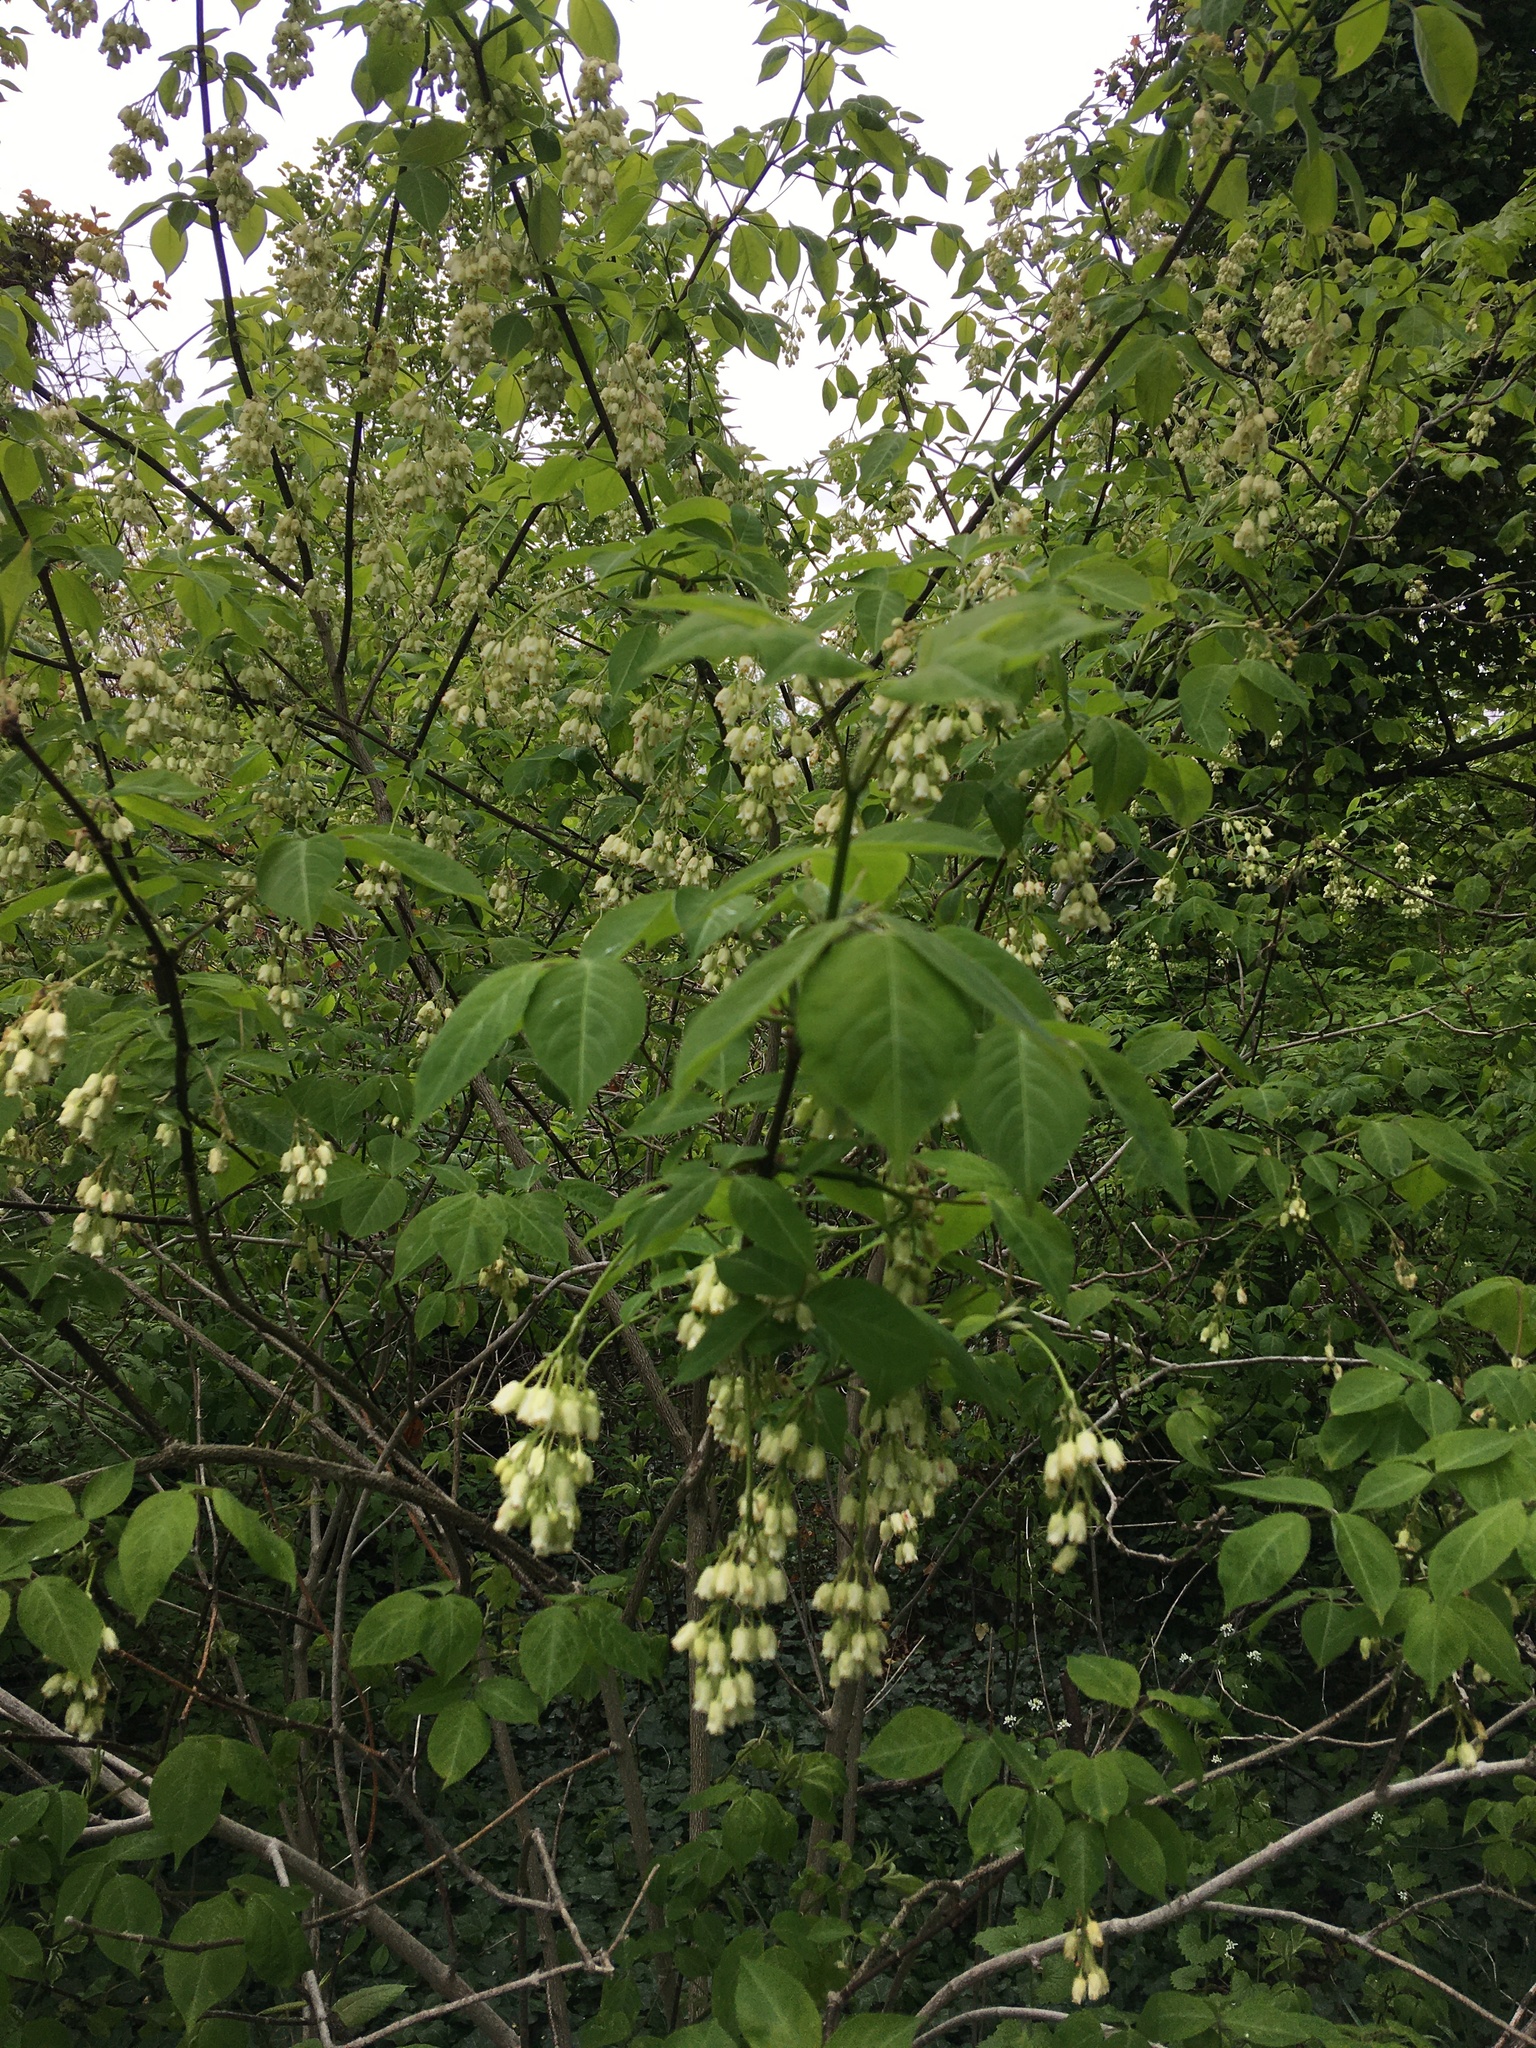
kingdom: Plantae
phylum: Tracheophyta
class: Magnoliopsida
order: Crossosomatales
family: Staphyleaceae
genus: Staphylea
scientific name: Staphylea trifolia
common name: American bladdernut
